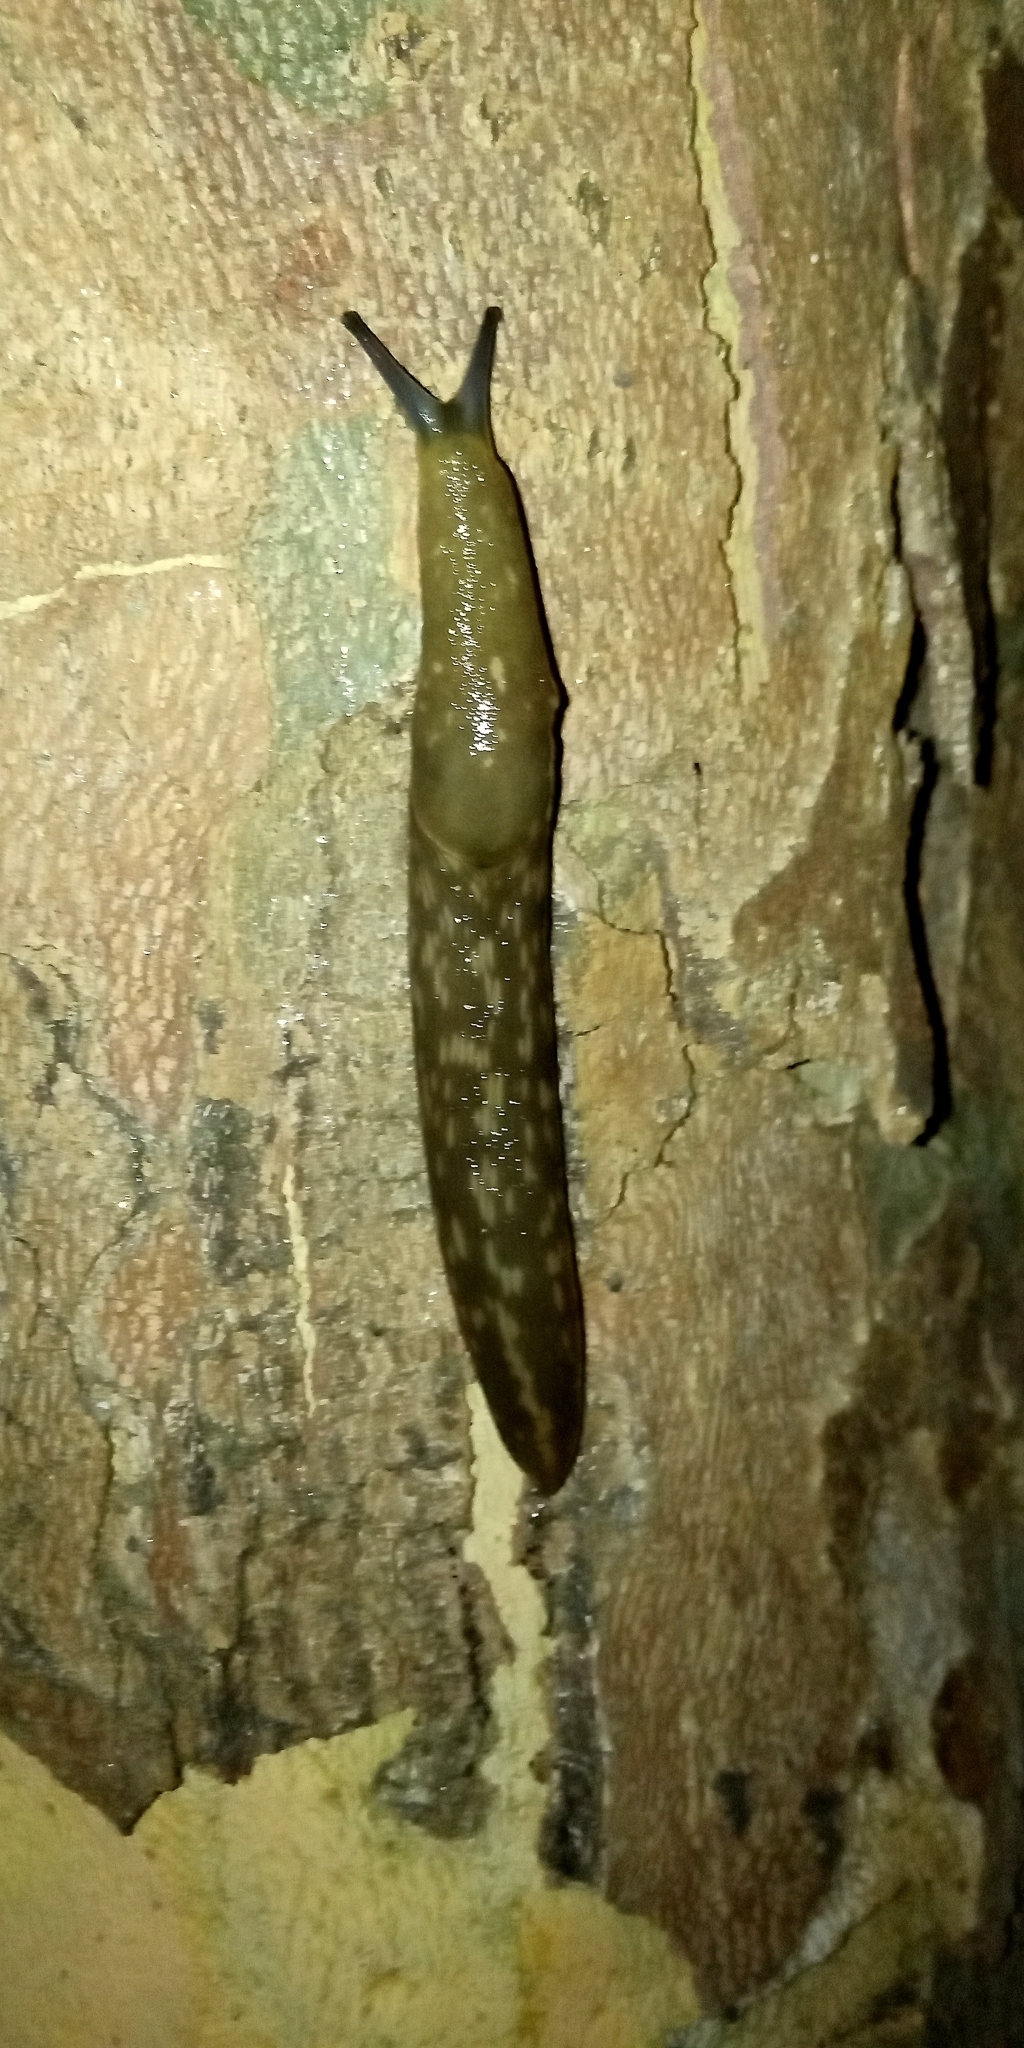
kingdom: Animalia
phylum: Mollusca
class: Gastropoda
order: Stylommatophora
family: Limacidae
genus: Limacus
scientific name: Limacus flavus
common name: Yellow gardenslug
